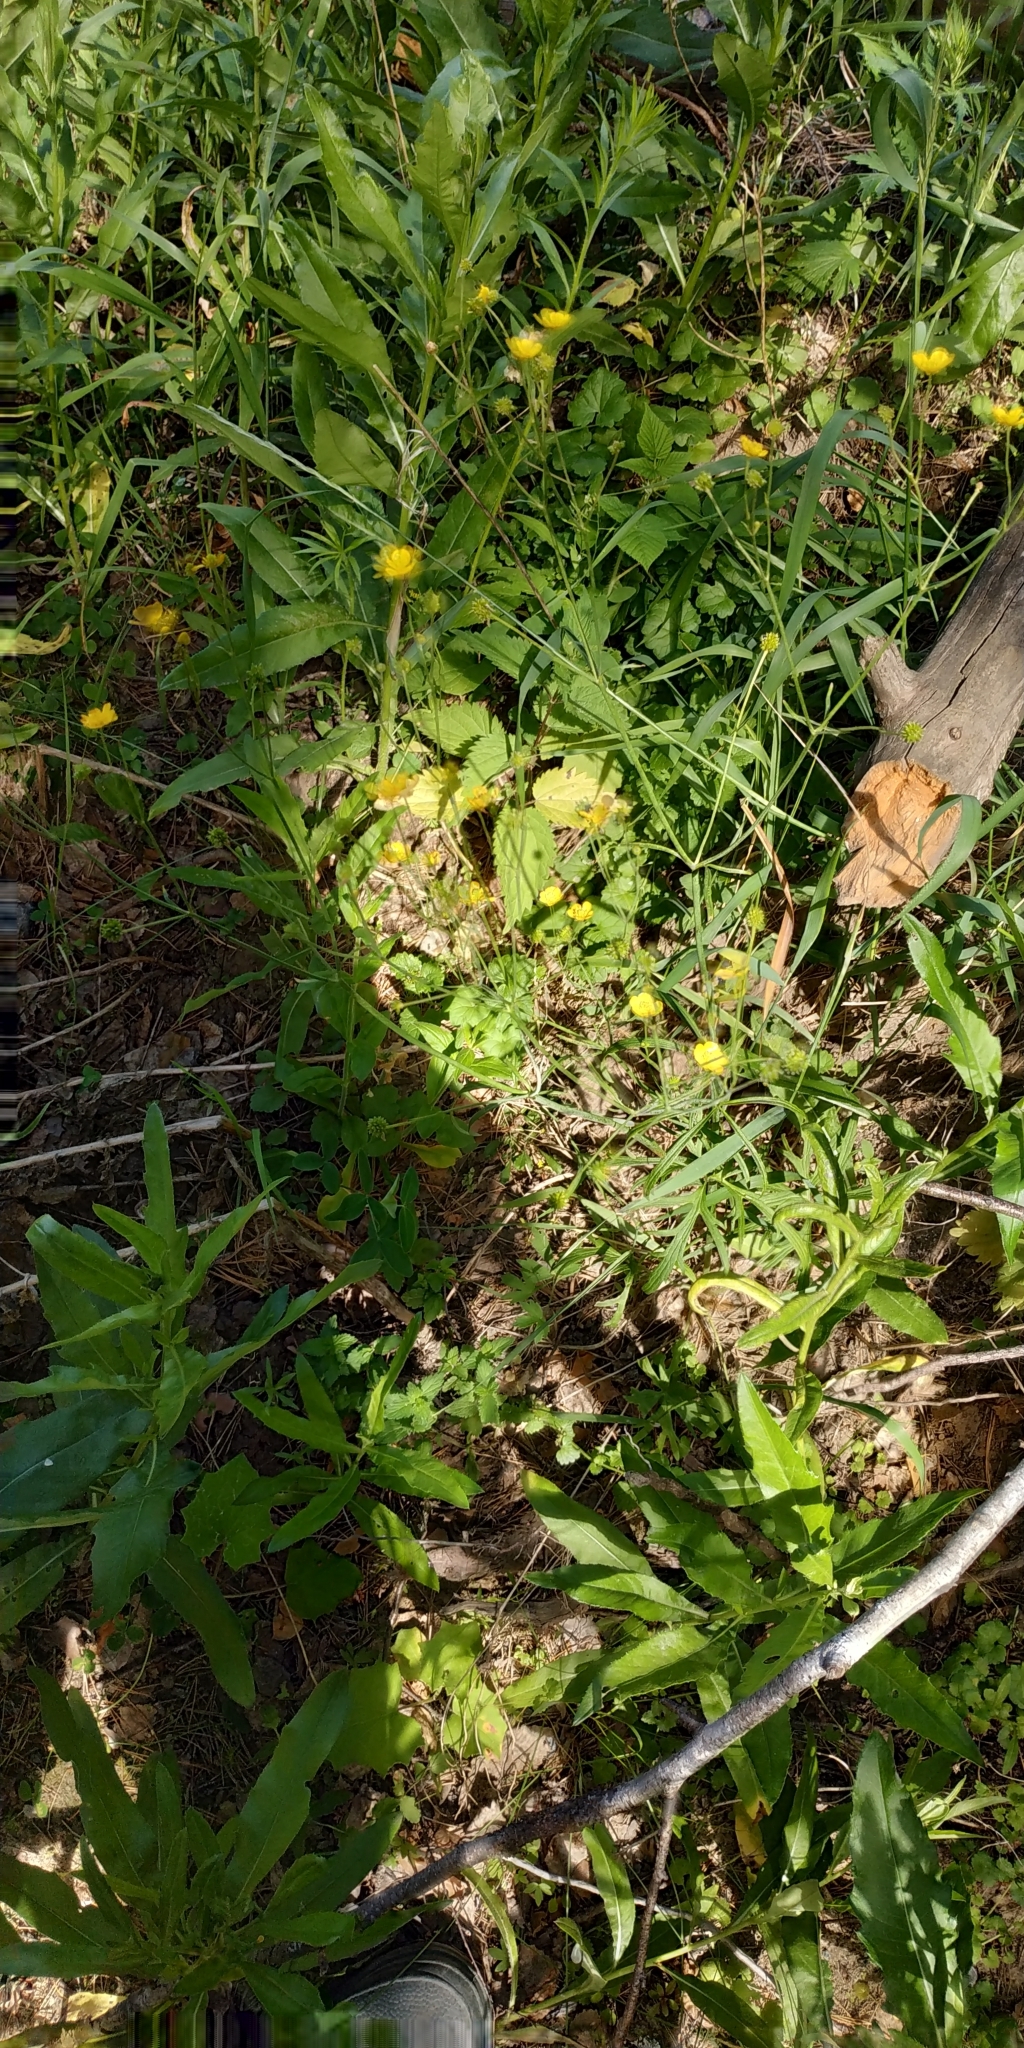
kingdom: Plantae
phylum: Tracheophyta
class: Magnoliopsida
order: Ranunculales
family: Ranunculaceae
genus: Ranunculus
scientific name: Ranunculus acris
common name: Meadow buttercup
